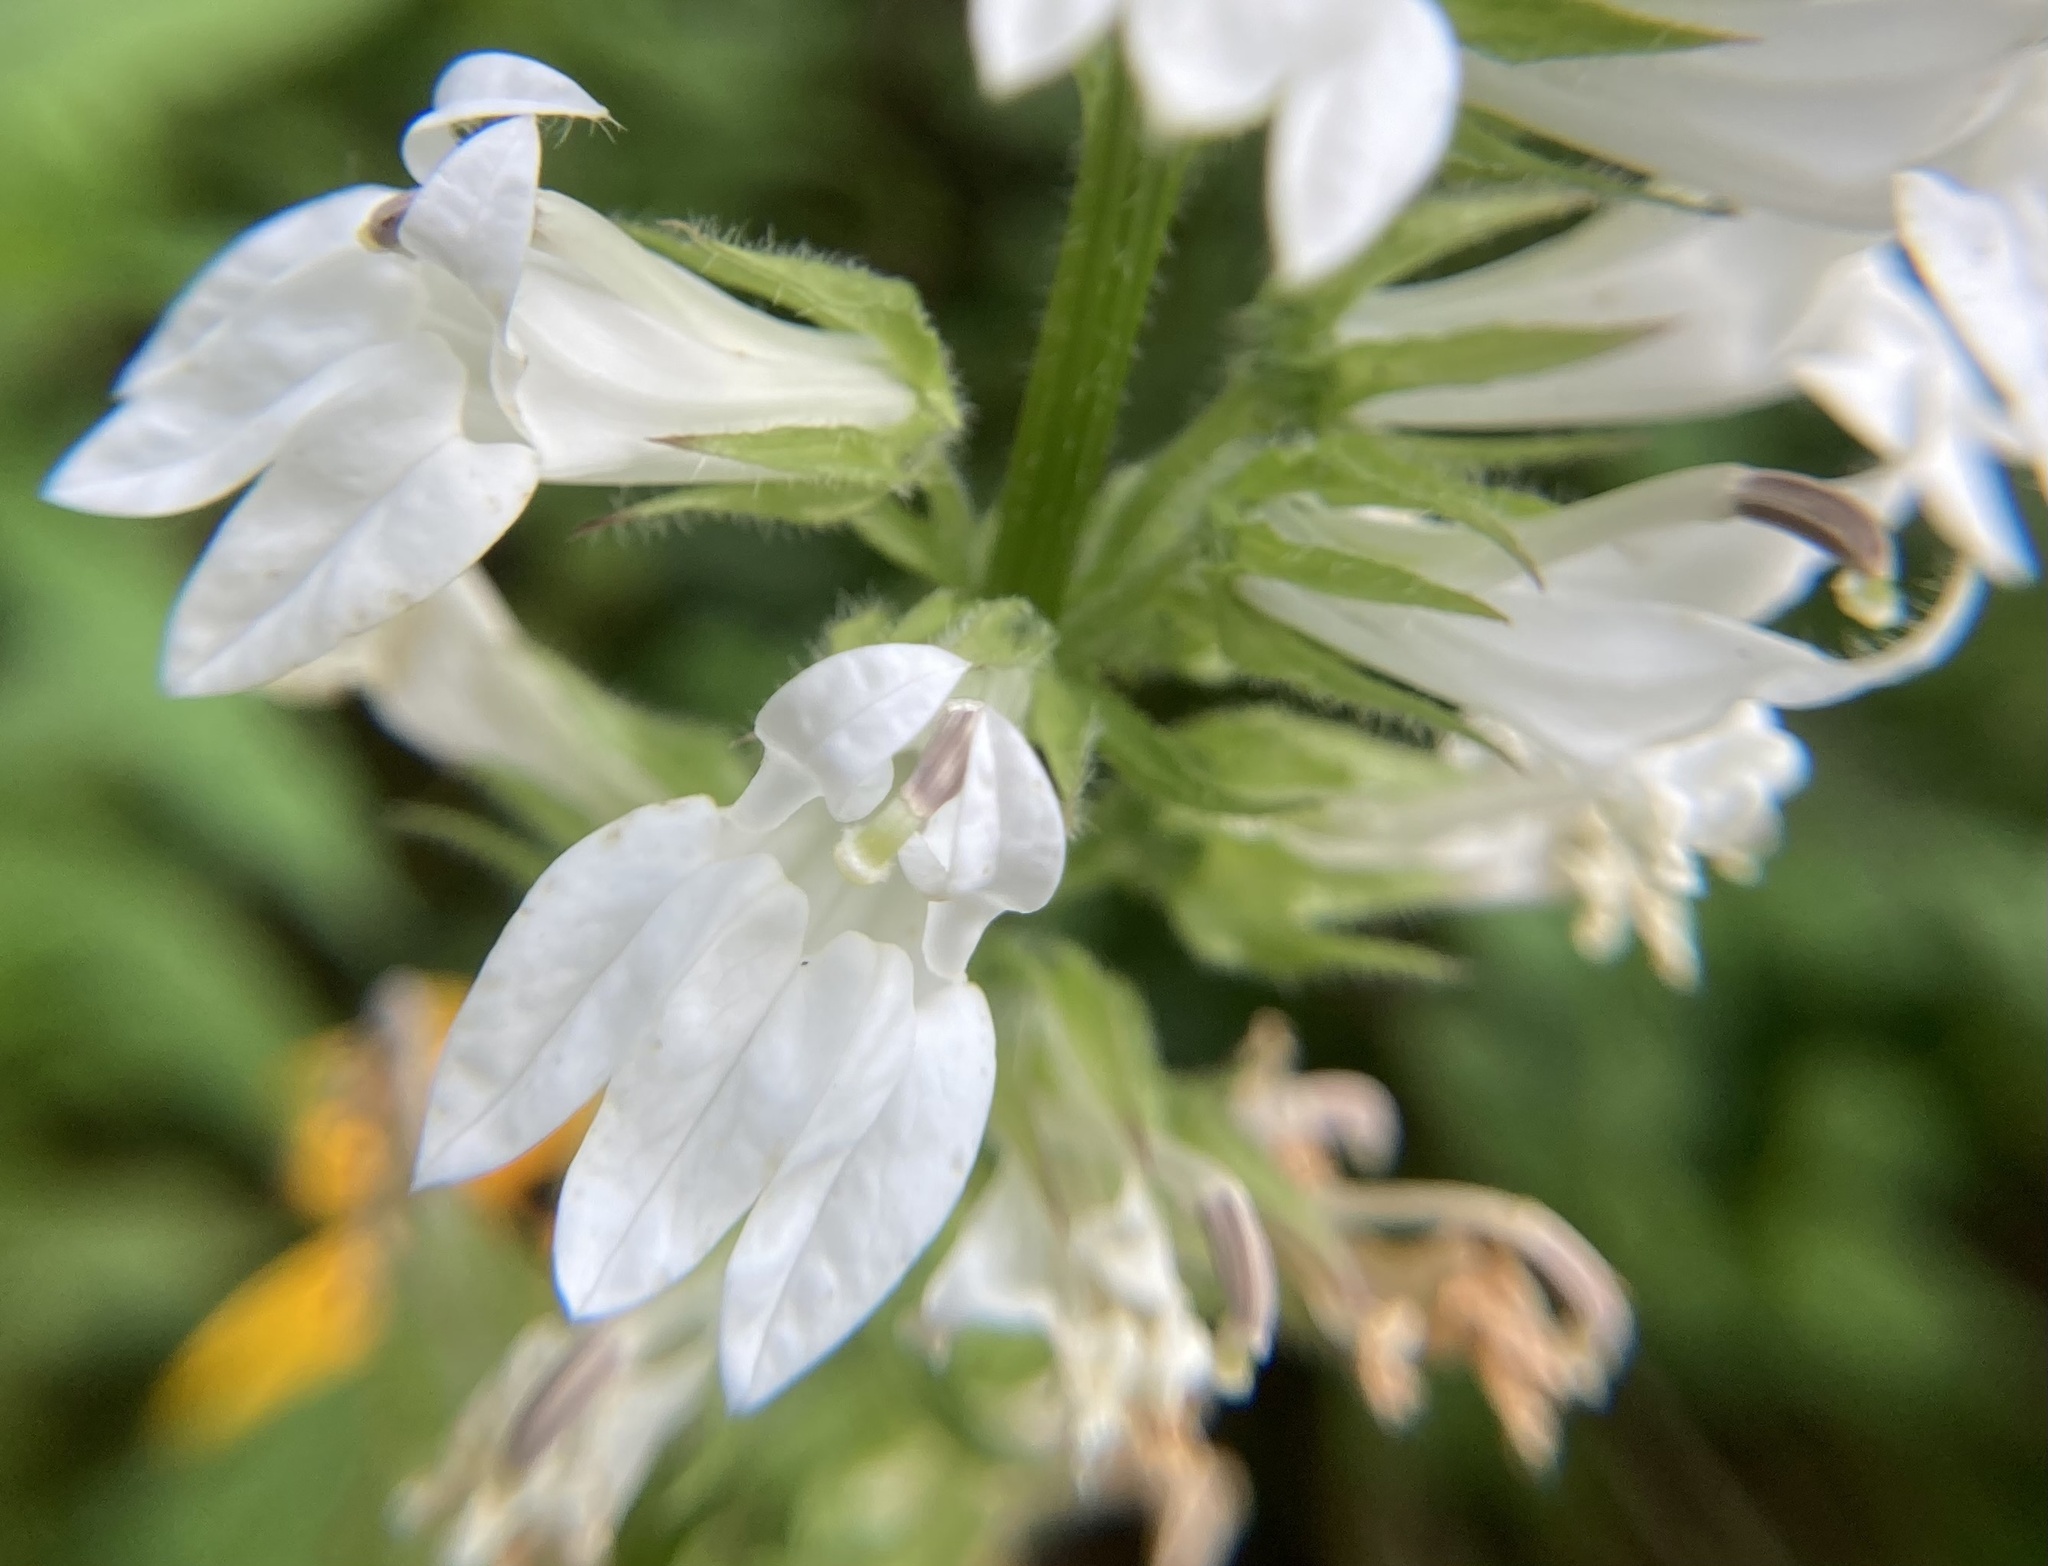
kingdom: Plantae
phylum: Tracheophyta
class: Magnoliopsida
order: Asterales
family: Campanulaceae
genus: Lobelia
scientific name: Lobelia siphilitica
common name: Great lobelia
